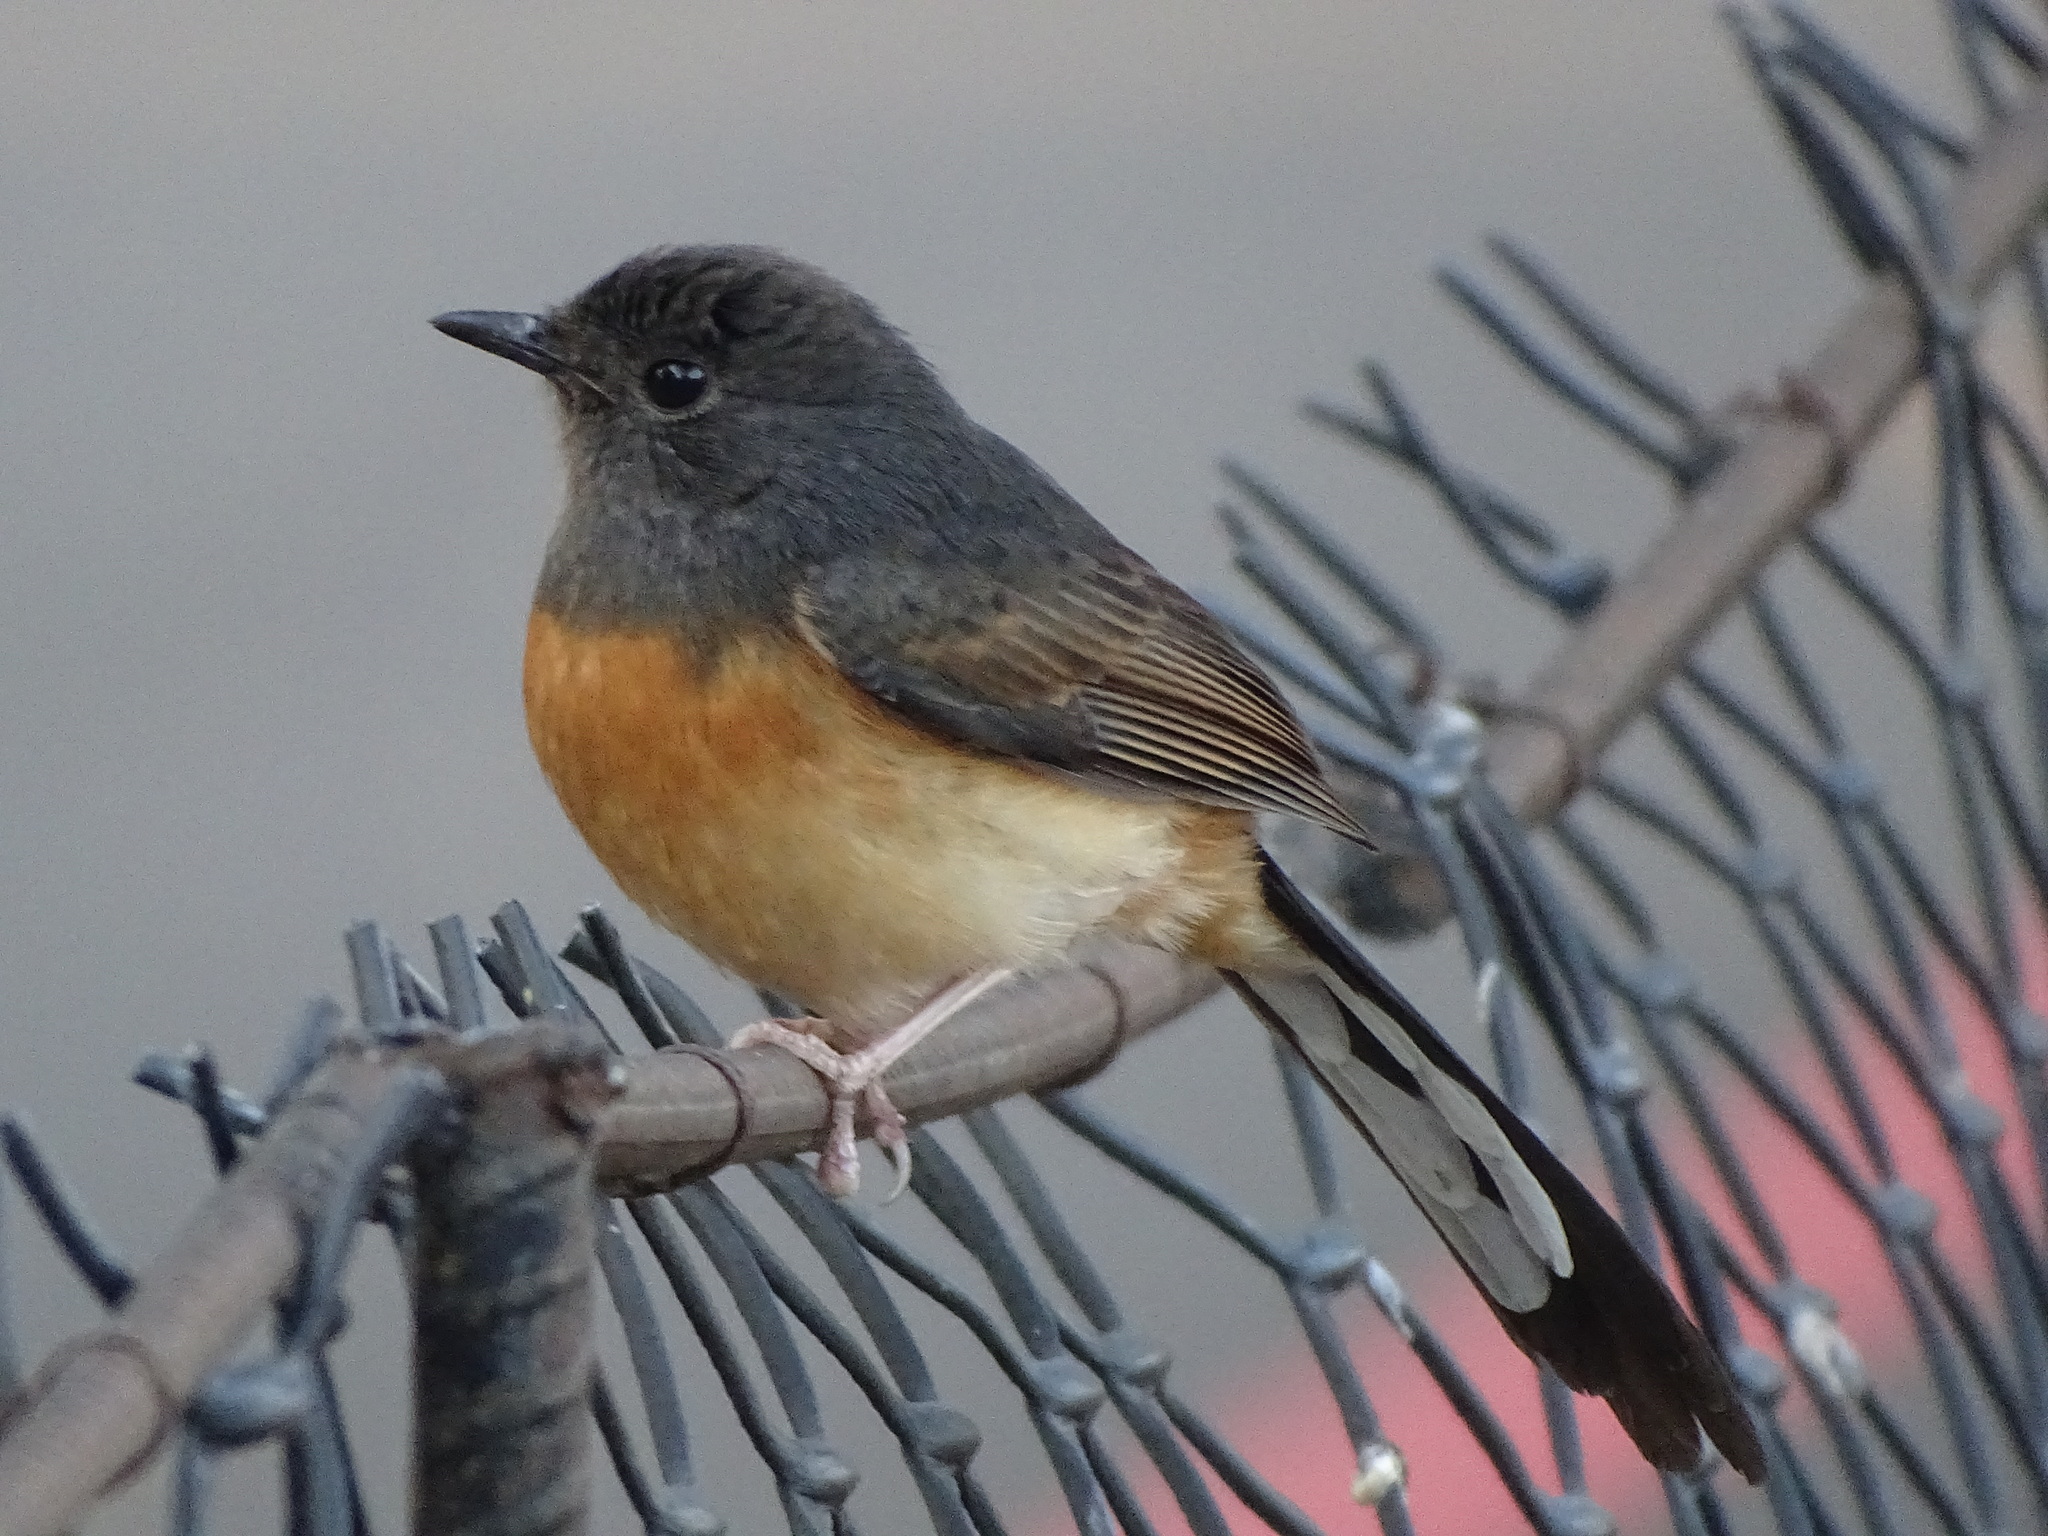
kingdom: Animalia
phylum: Chordata
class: Aves
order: Passeriformes
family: Muscicapidae
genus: Copsychus
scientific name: Copsychus malabaricus
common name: White-rumped shama
